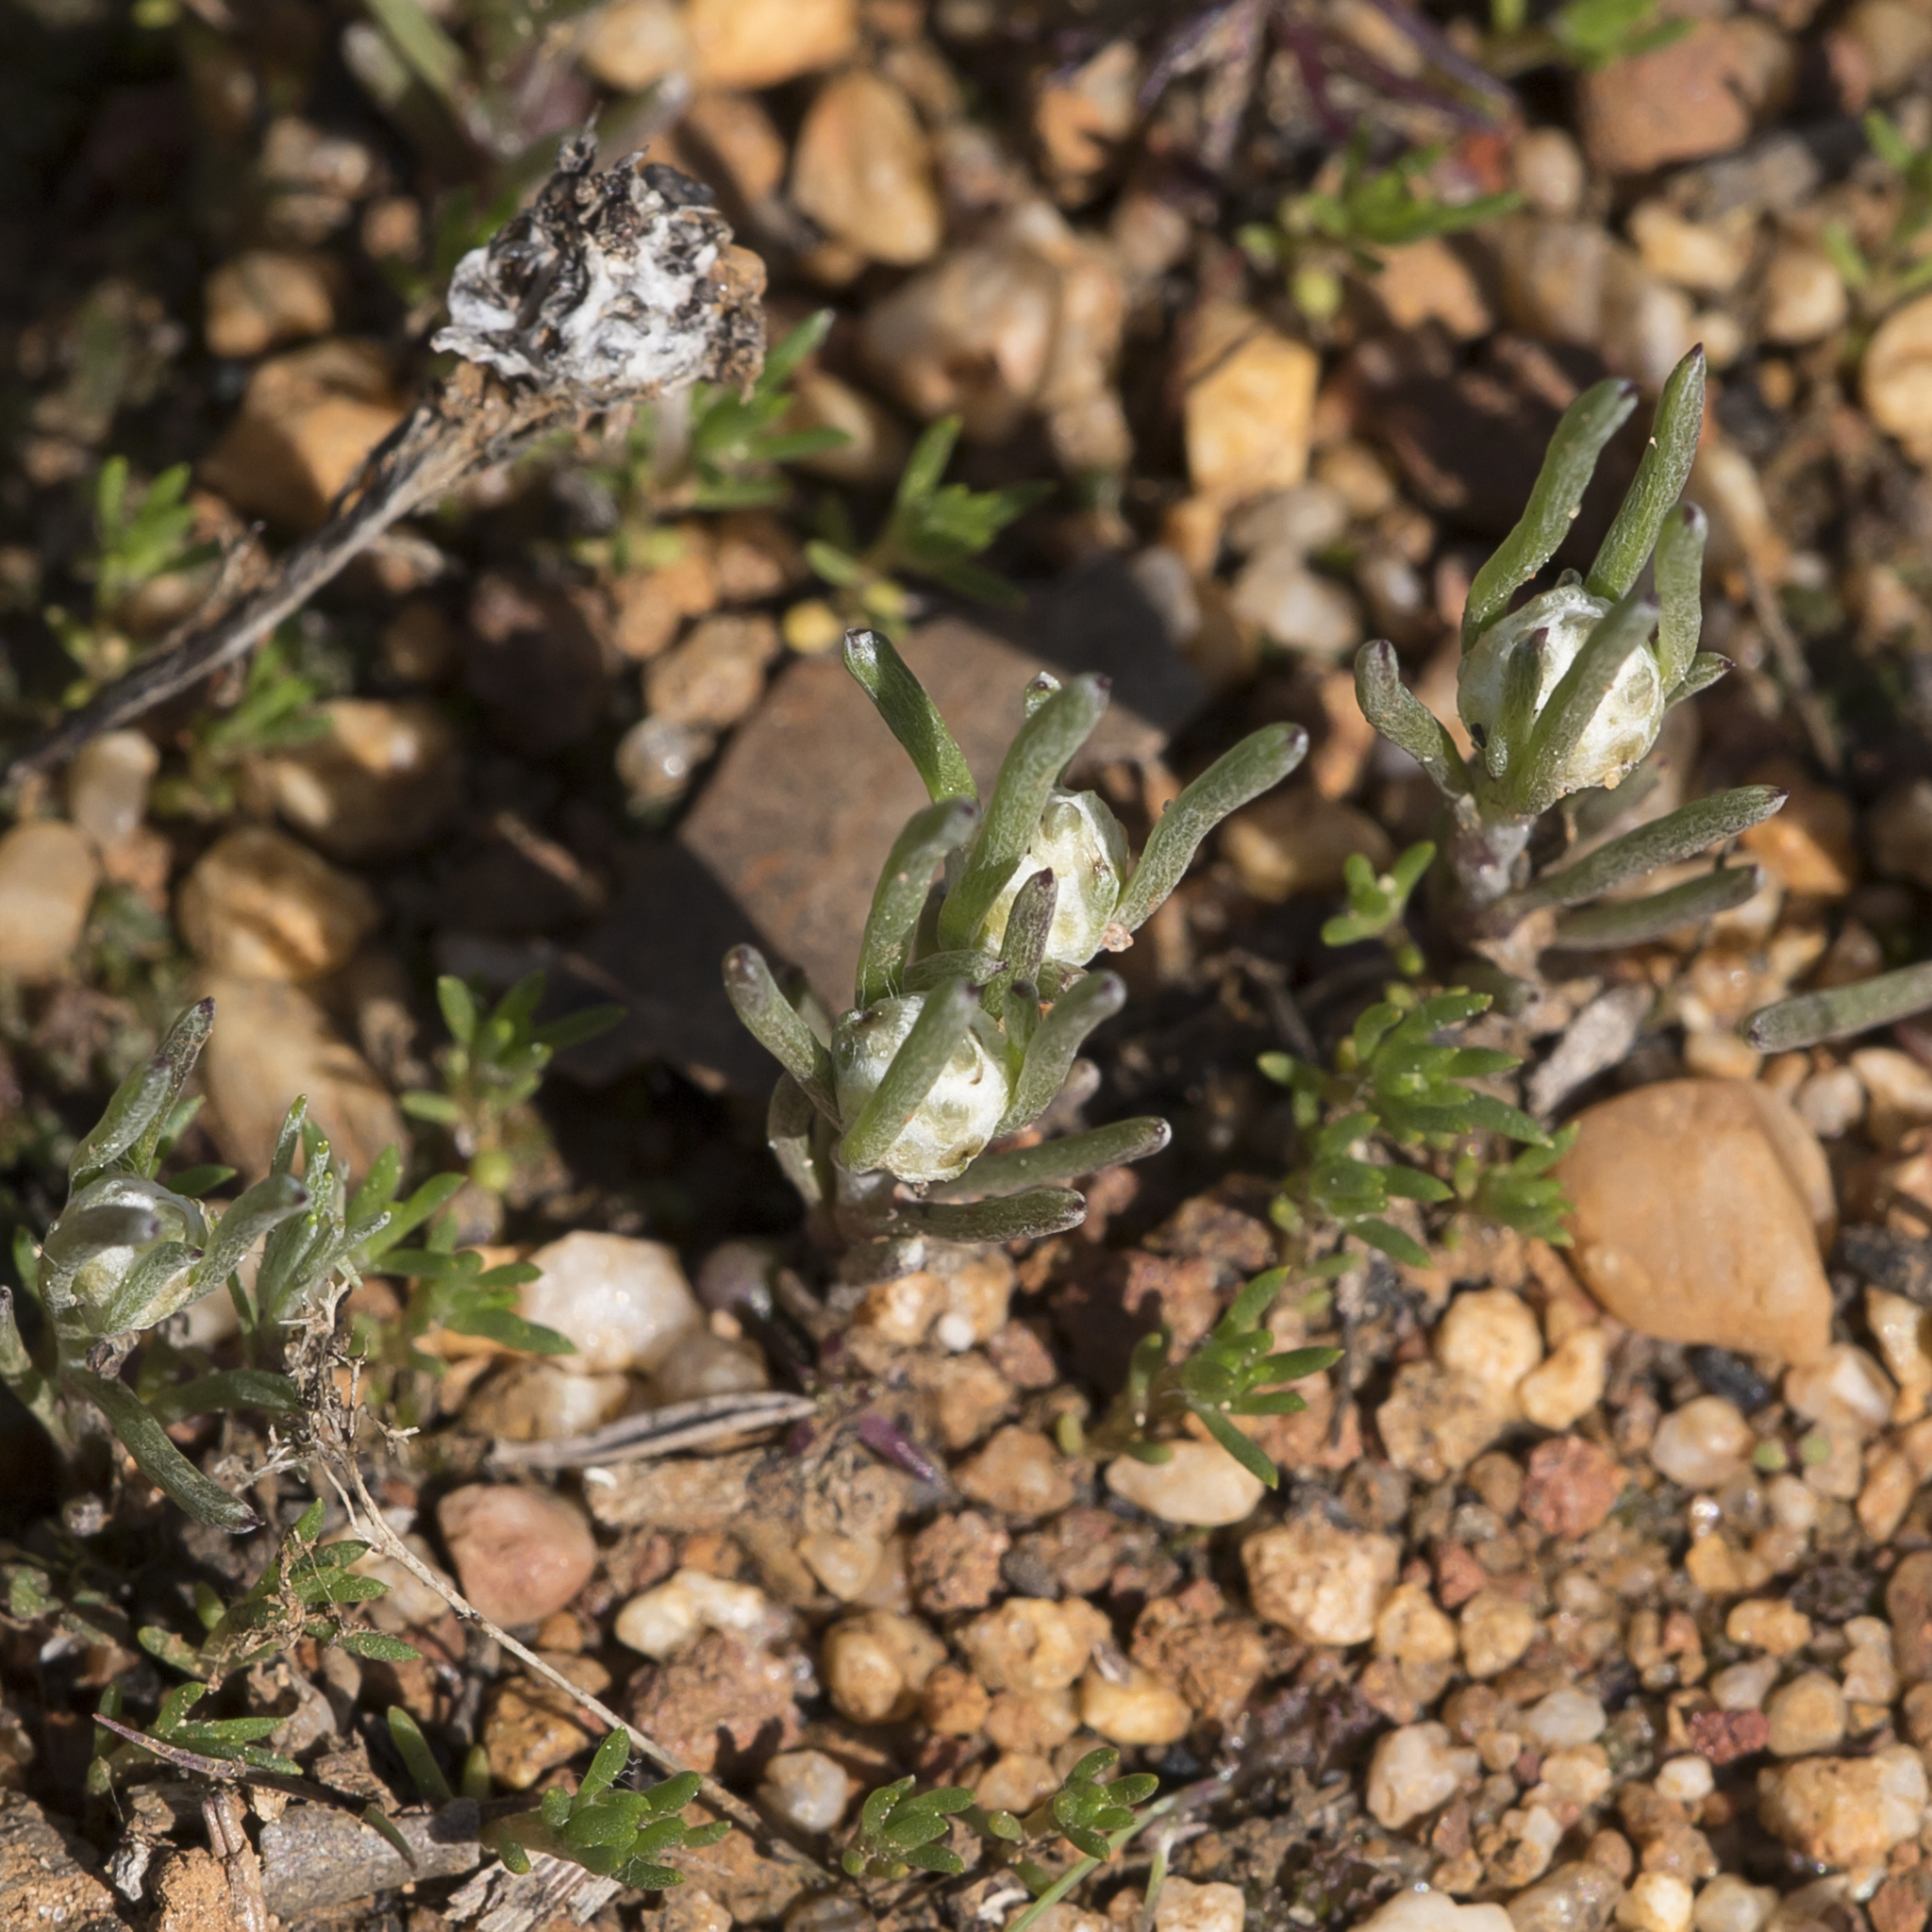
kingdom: Plantae
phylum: Tracheophyta
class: Magnoliopsida
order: Asterales
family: Asteraceae
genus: Blennospora
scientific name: Blennospora drummondii
